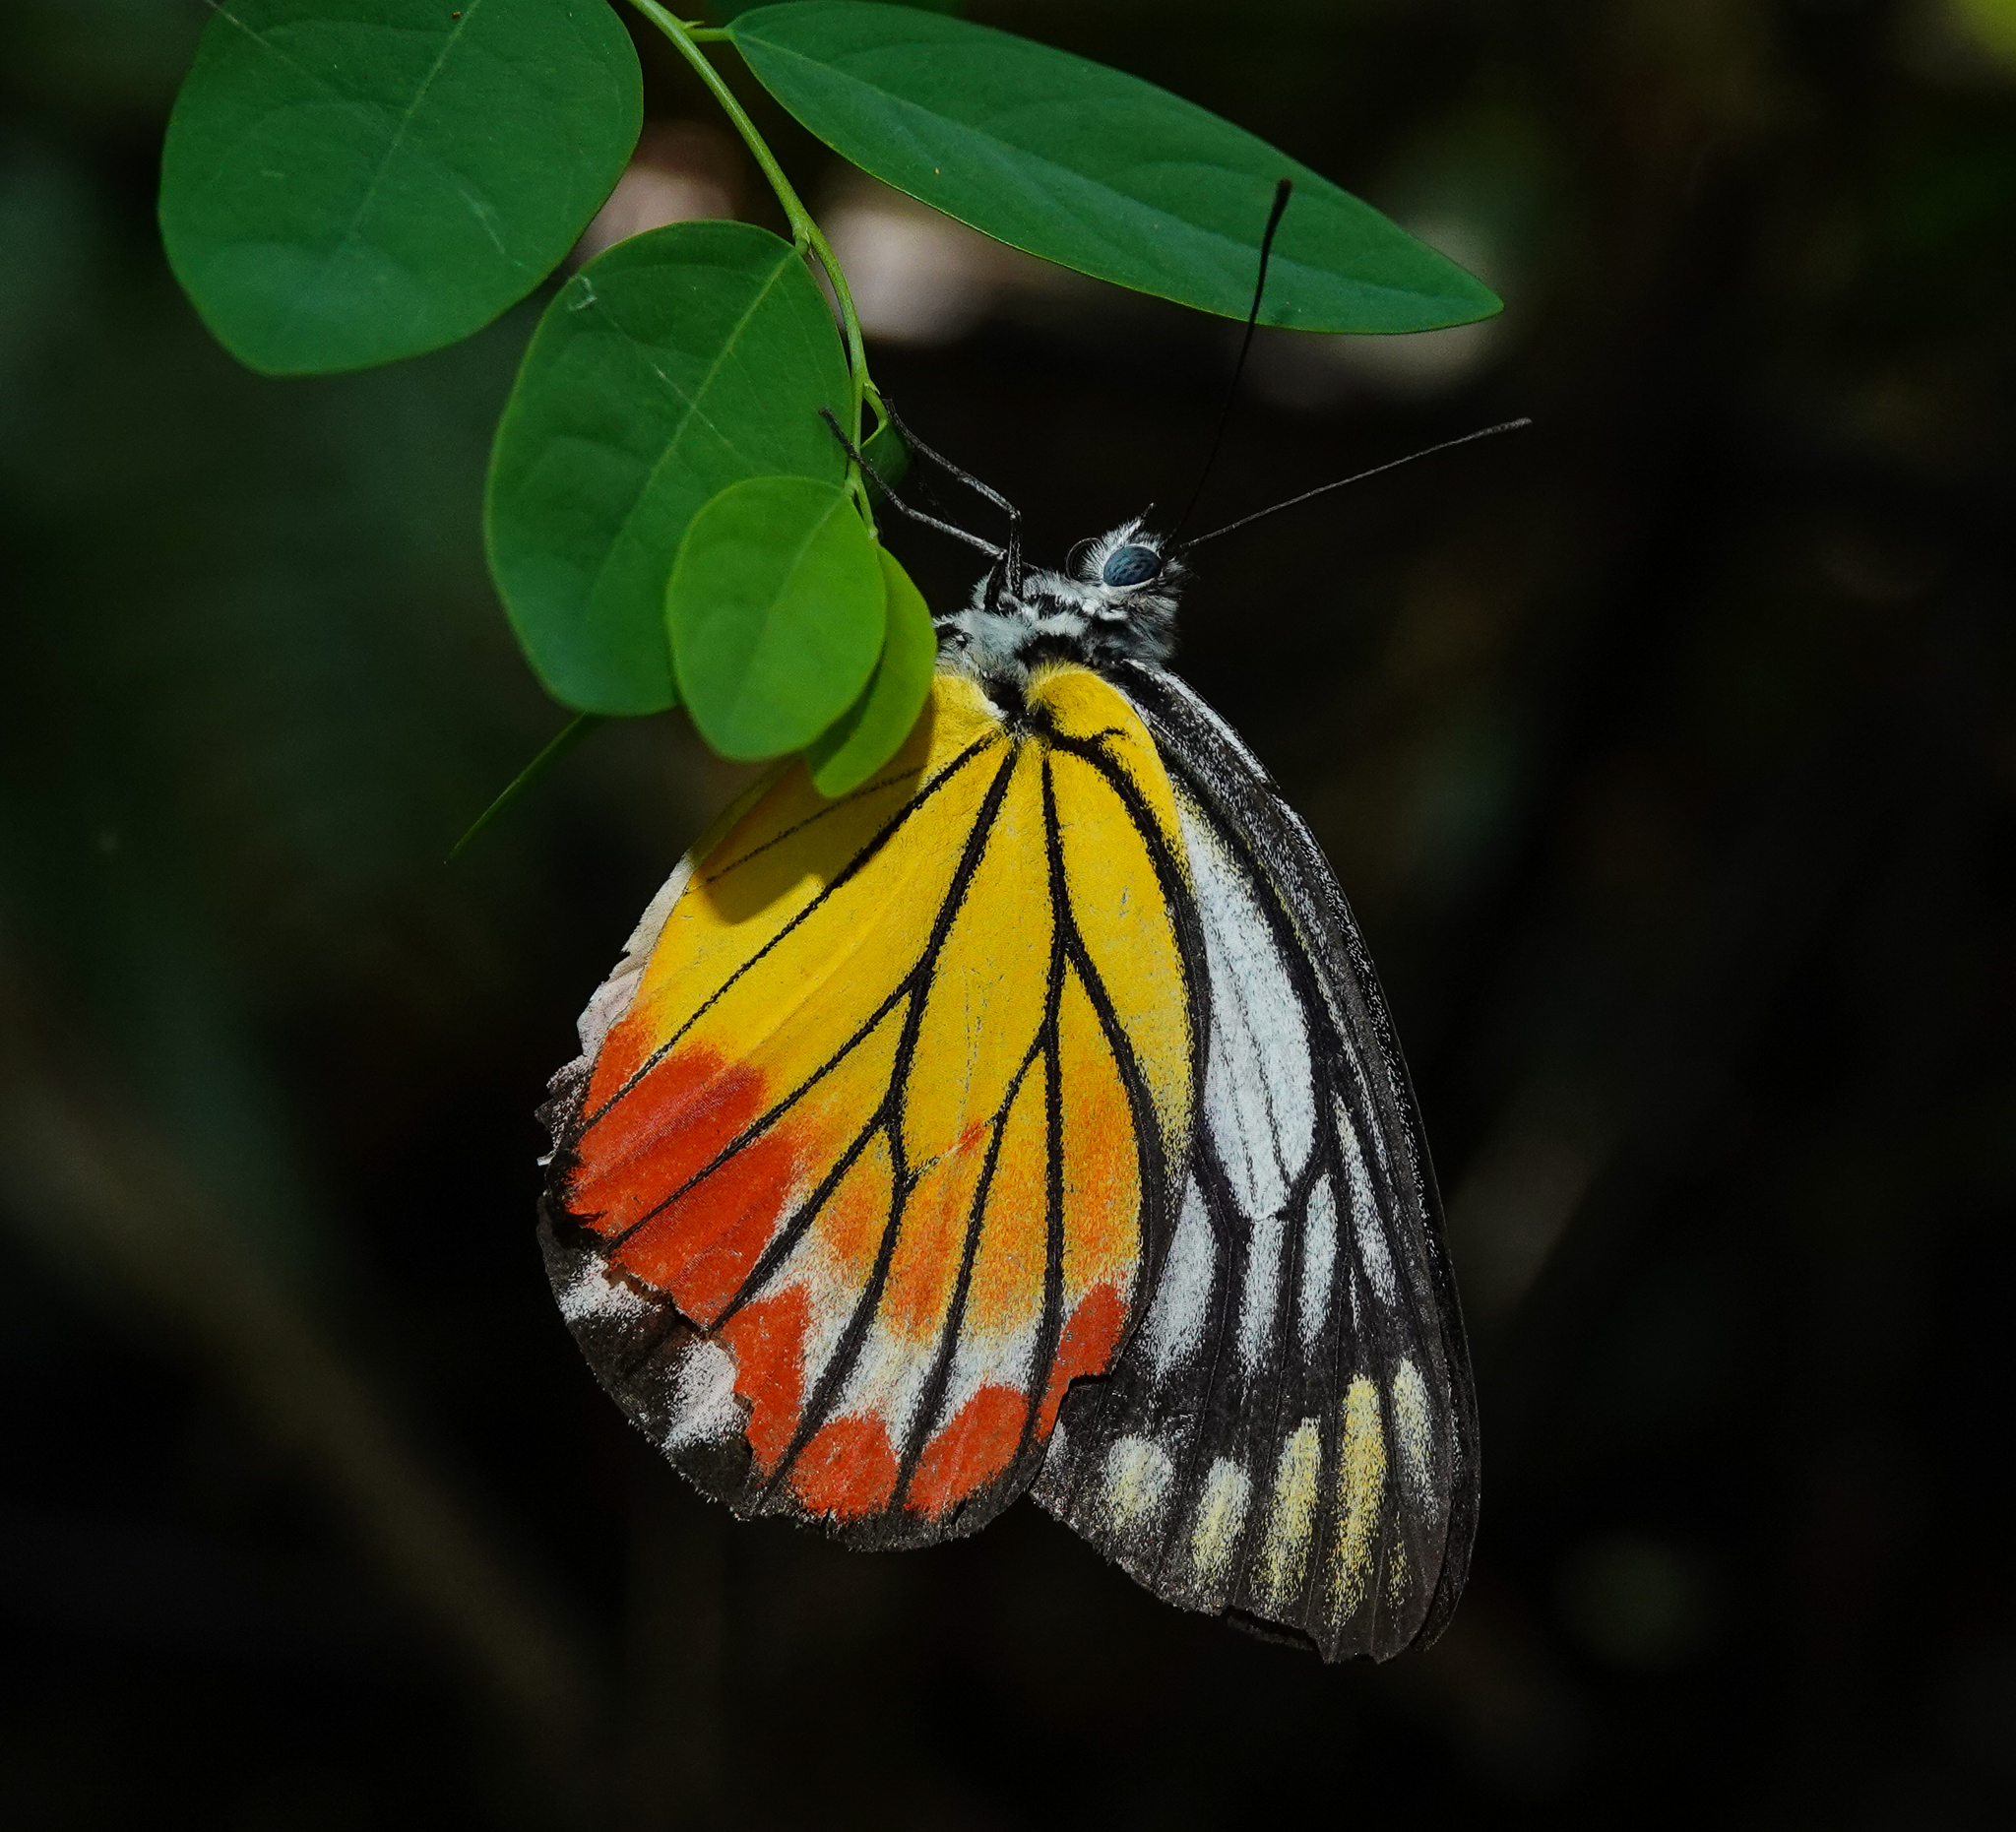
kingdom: Animalia
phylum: Arthropoda
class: Insecta
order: Lepidoptera
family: Pieridae
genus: Delias
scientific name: Delias hyparete
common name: Painted jezebel
